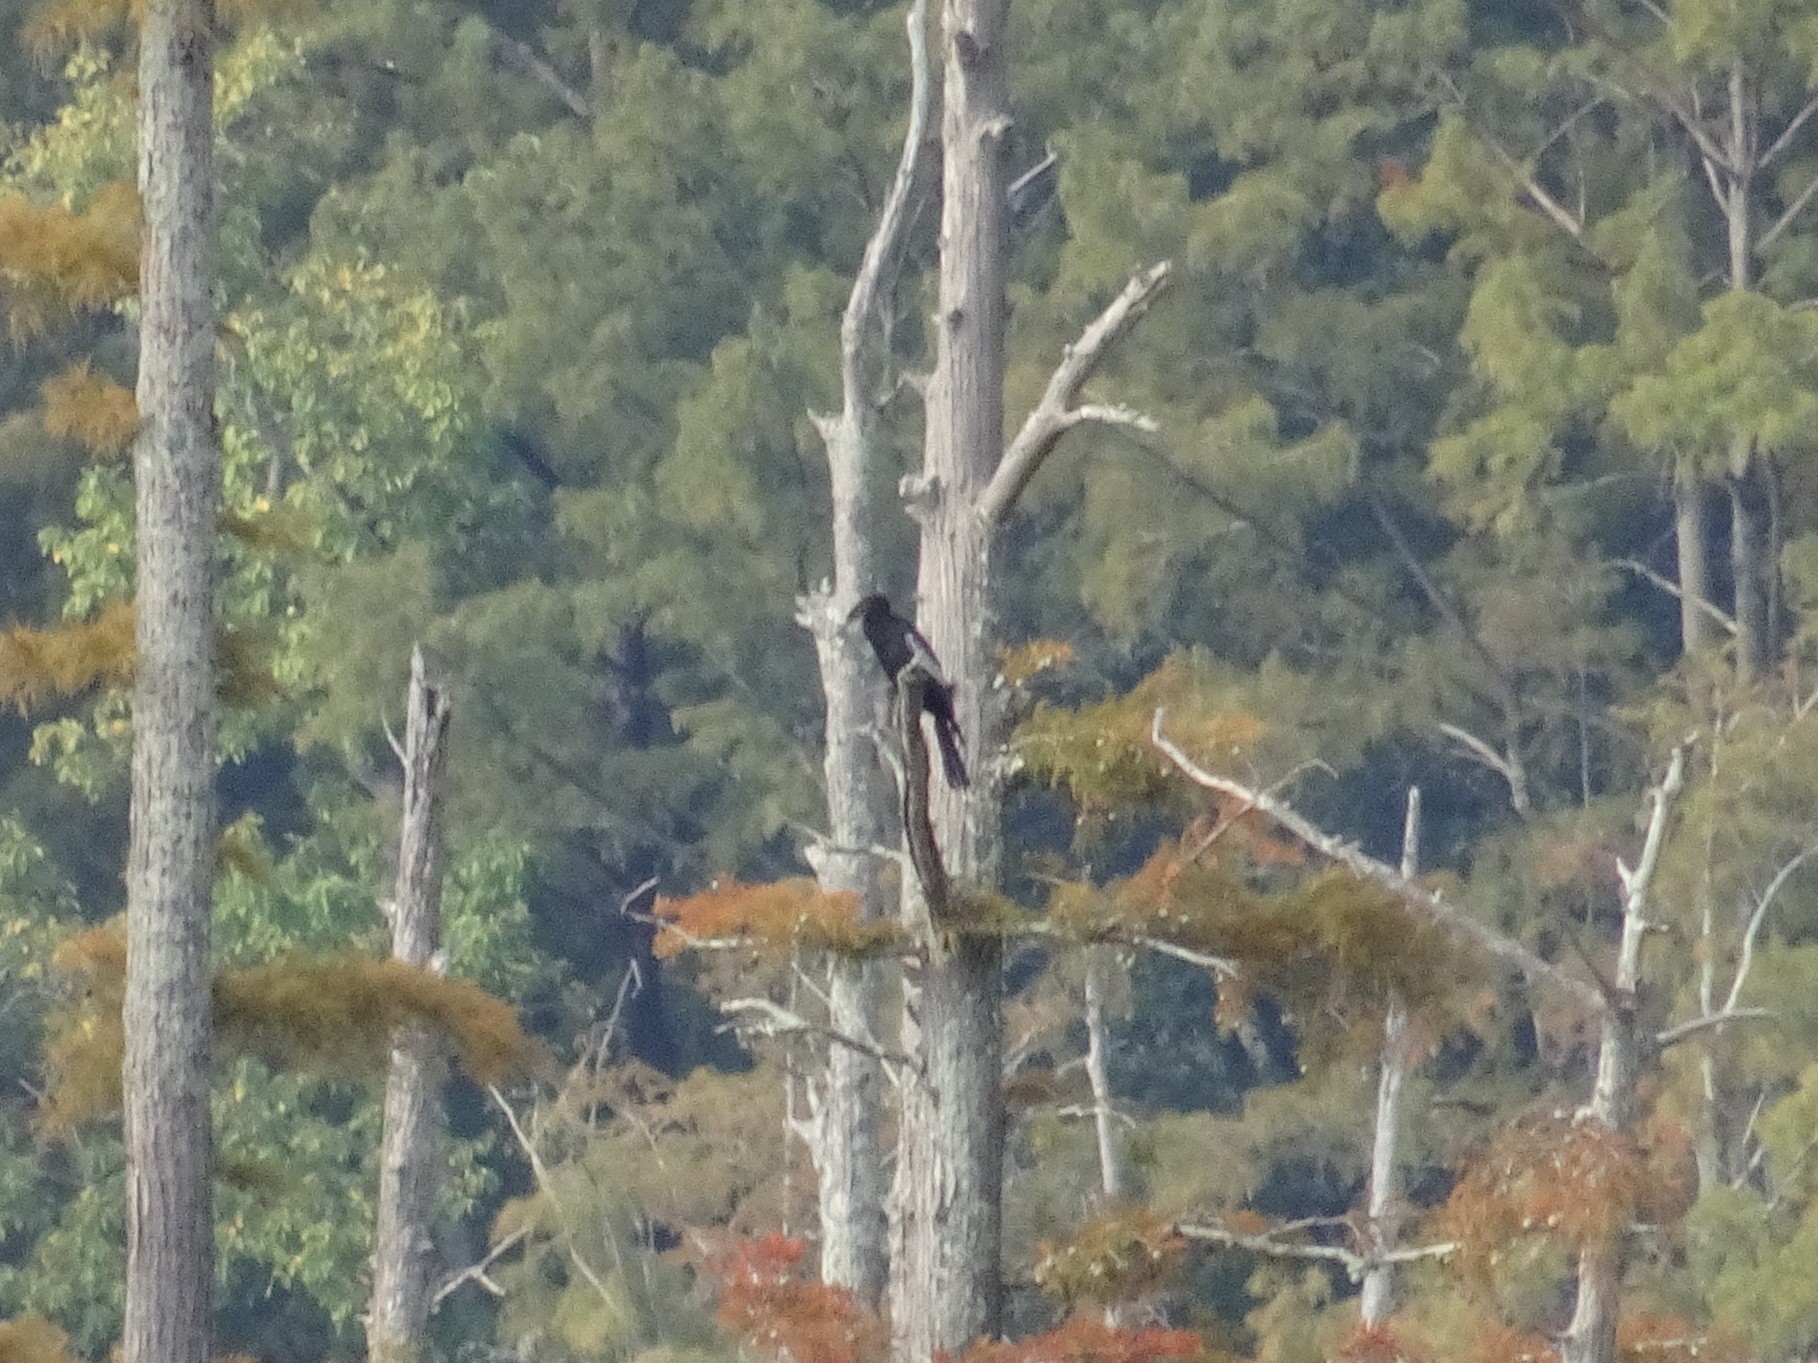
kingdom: Animalia
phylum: Chordata
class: Aves
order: Suliformes
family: Anhingidae
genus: Anhinga
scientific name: Anhinga anhinga
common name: Anhinga
